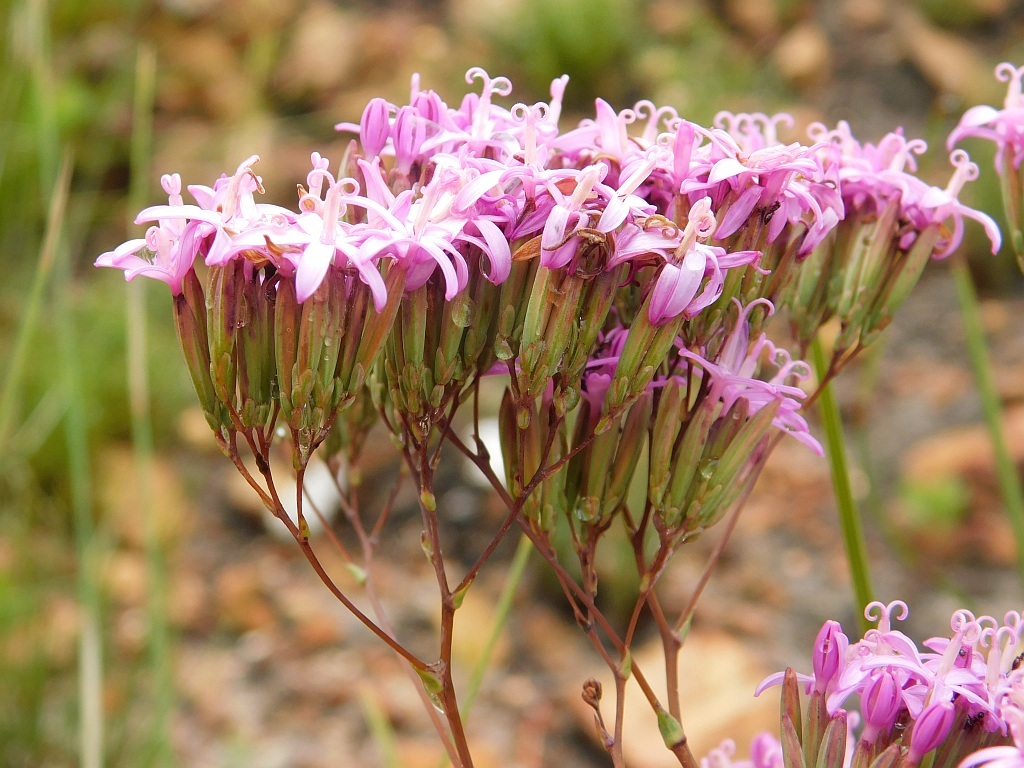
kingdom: Plantae
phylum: Tracheophyta
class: Magnoliopsida
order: Asterales
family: Asteraceae
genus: Corymbium
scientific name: Corymbium glabrum
